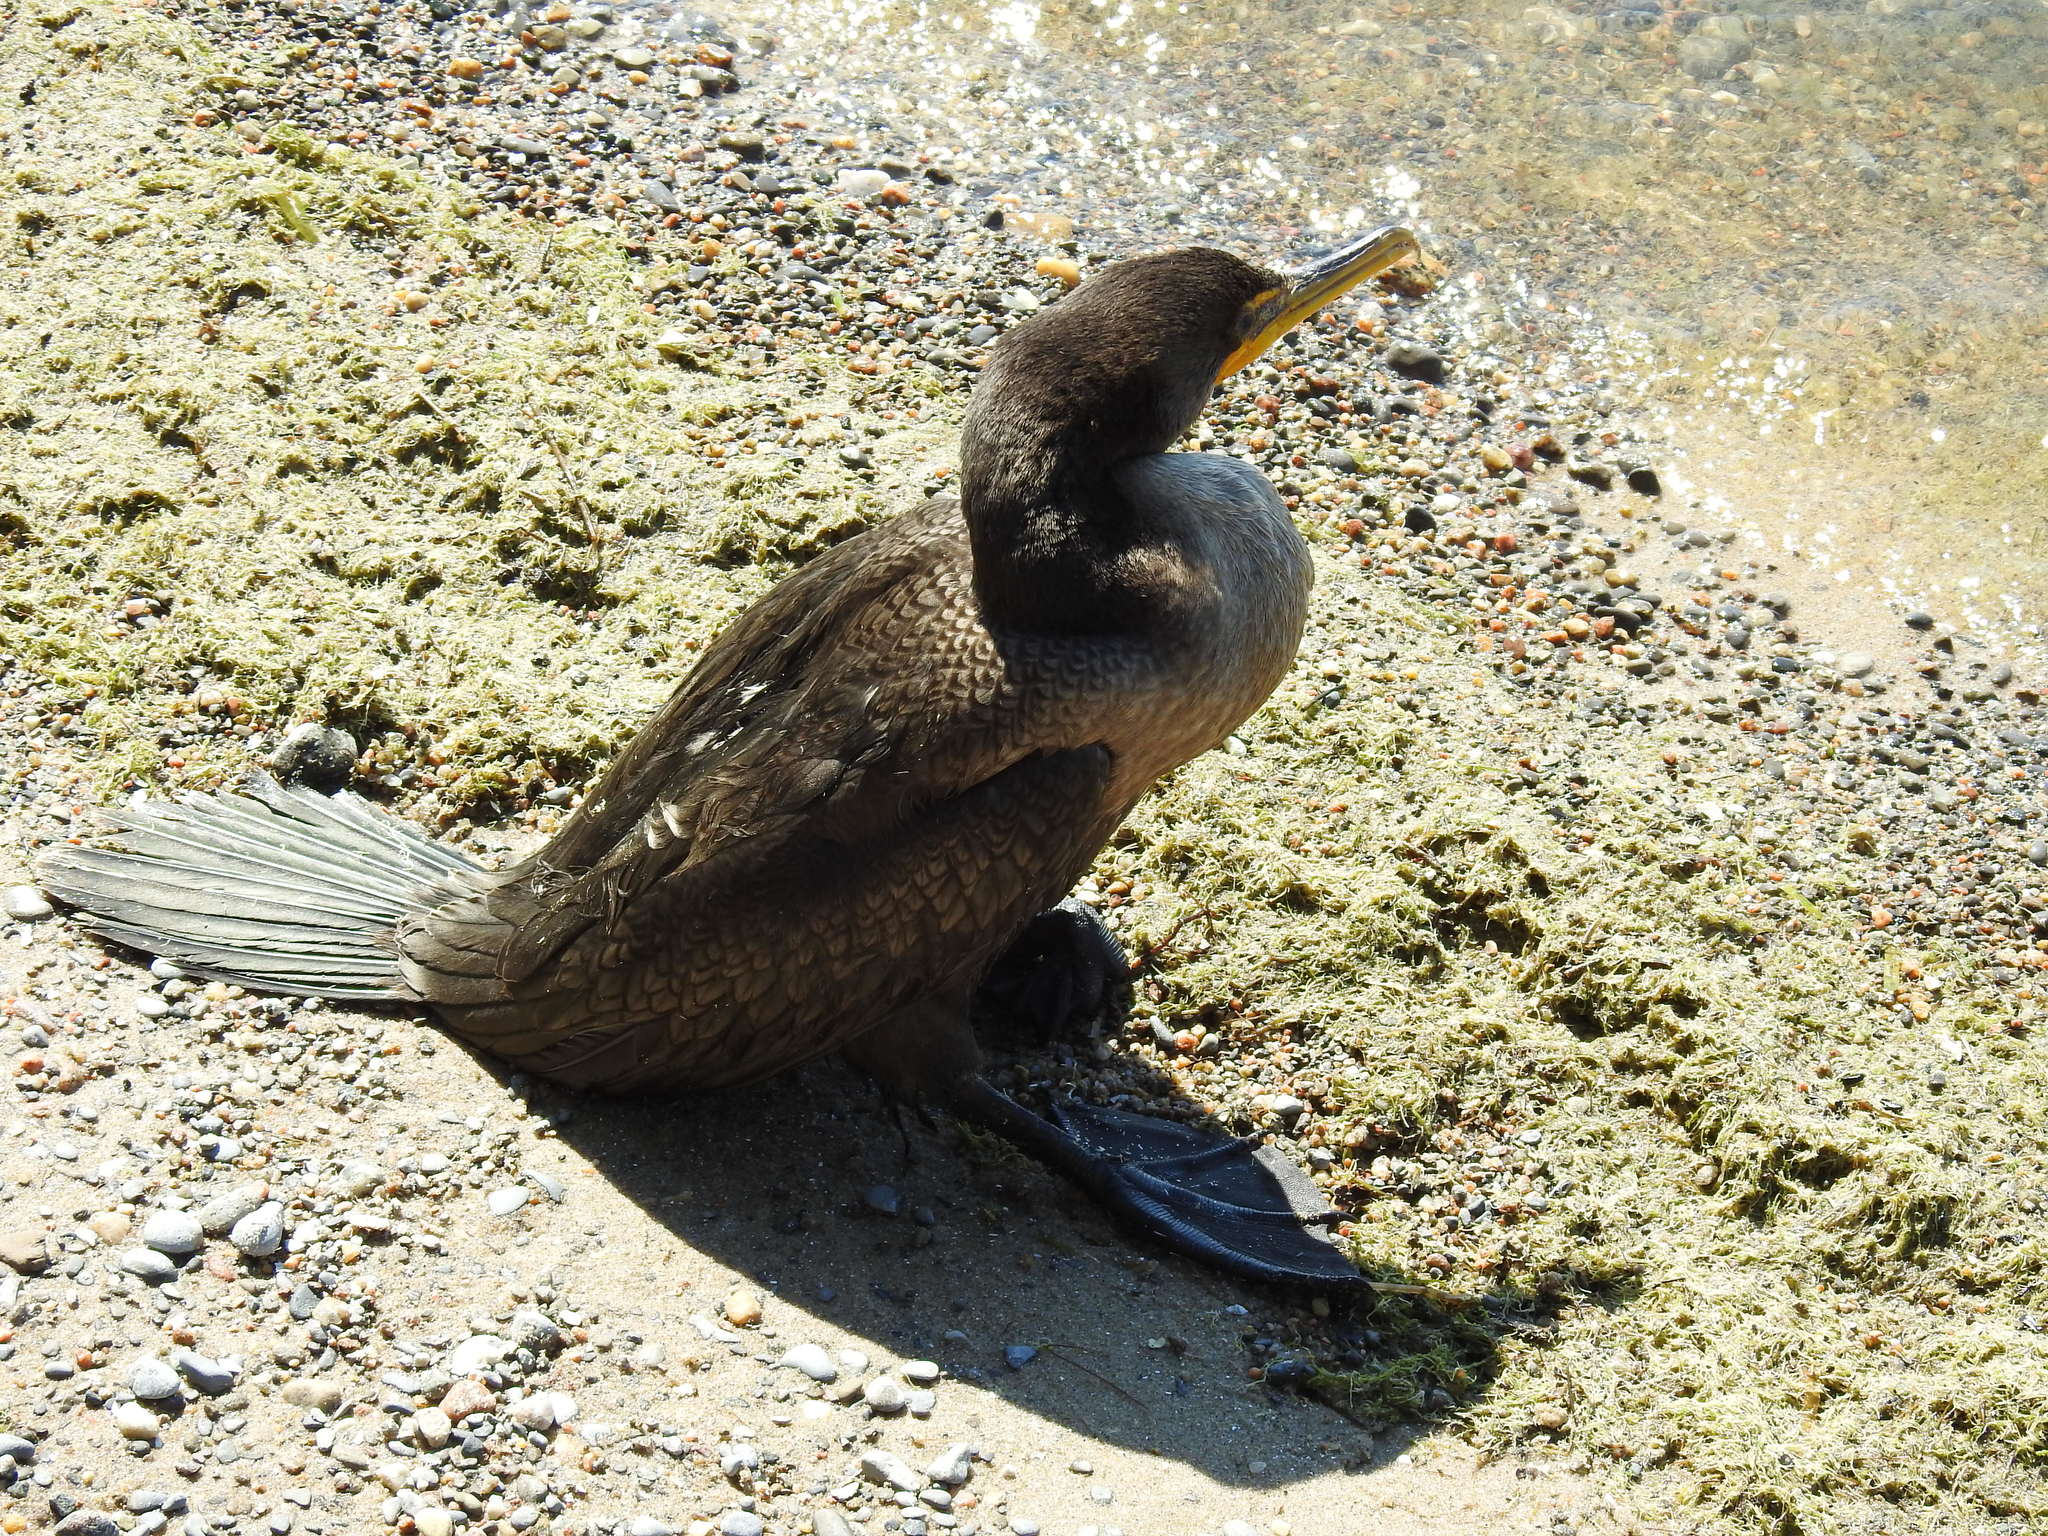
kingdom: Animalia
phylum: Chordata
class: Aves
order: Suliformes
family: Phalacrocoracidae
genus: Phalacrocorax
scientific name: Phalacrocorax auritus
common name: Double-crested cormorant
